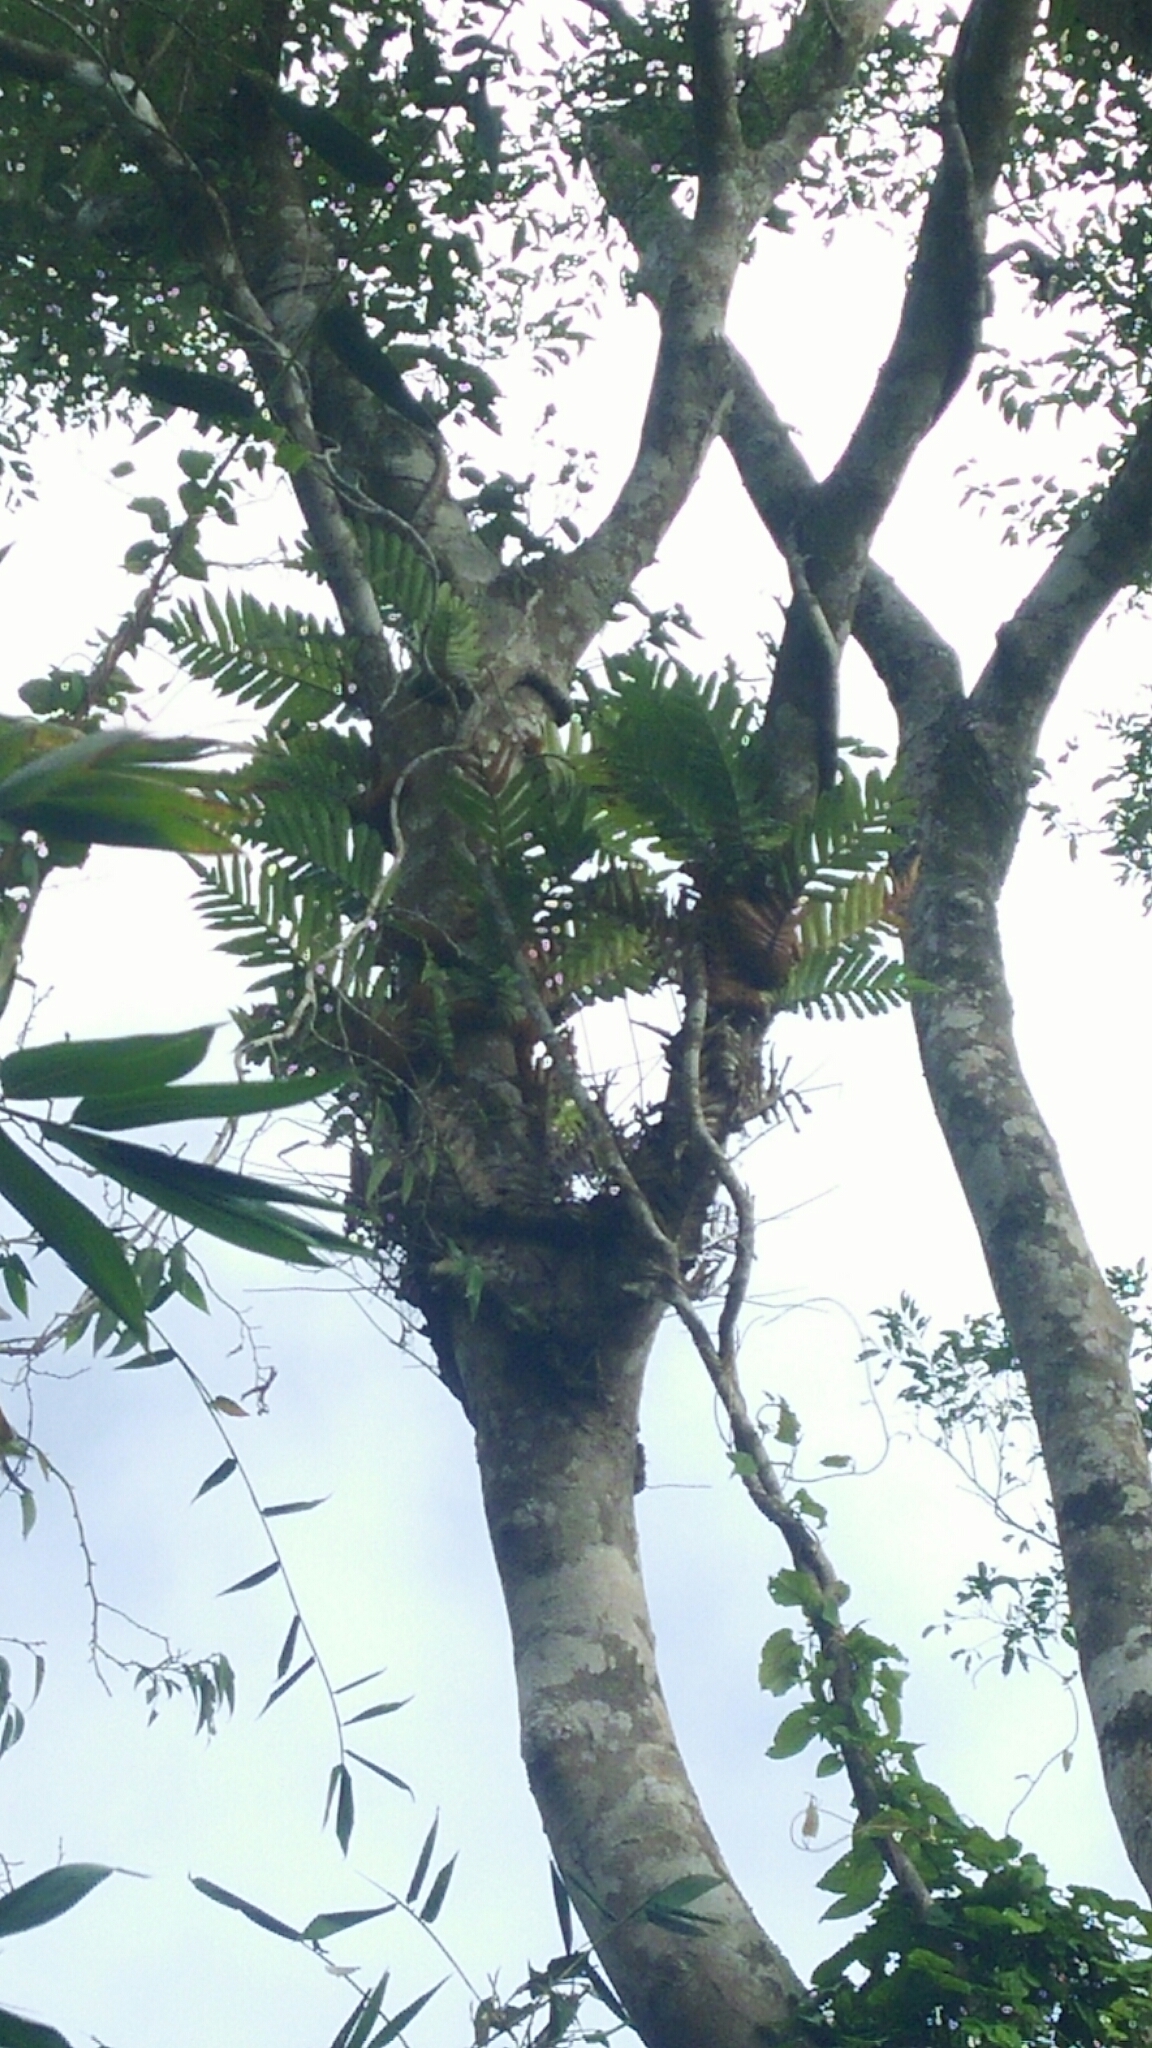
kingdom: Plantae
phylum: Tracheophyta
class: Polypodiopsida
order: Polypodiales
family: Polypodiaceae
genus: Drynaria
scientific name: Drynaria coronans
